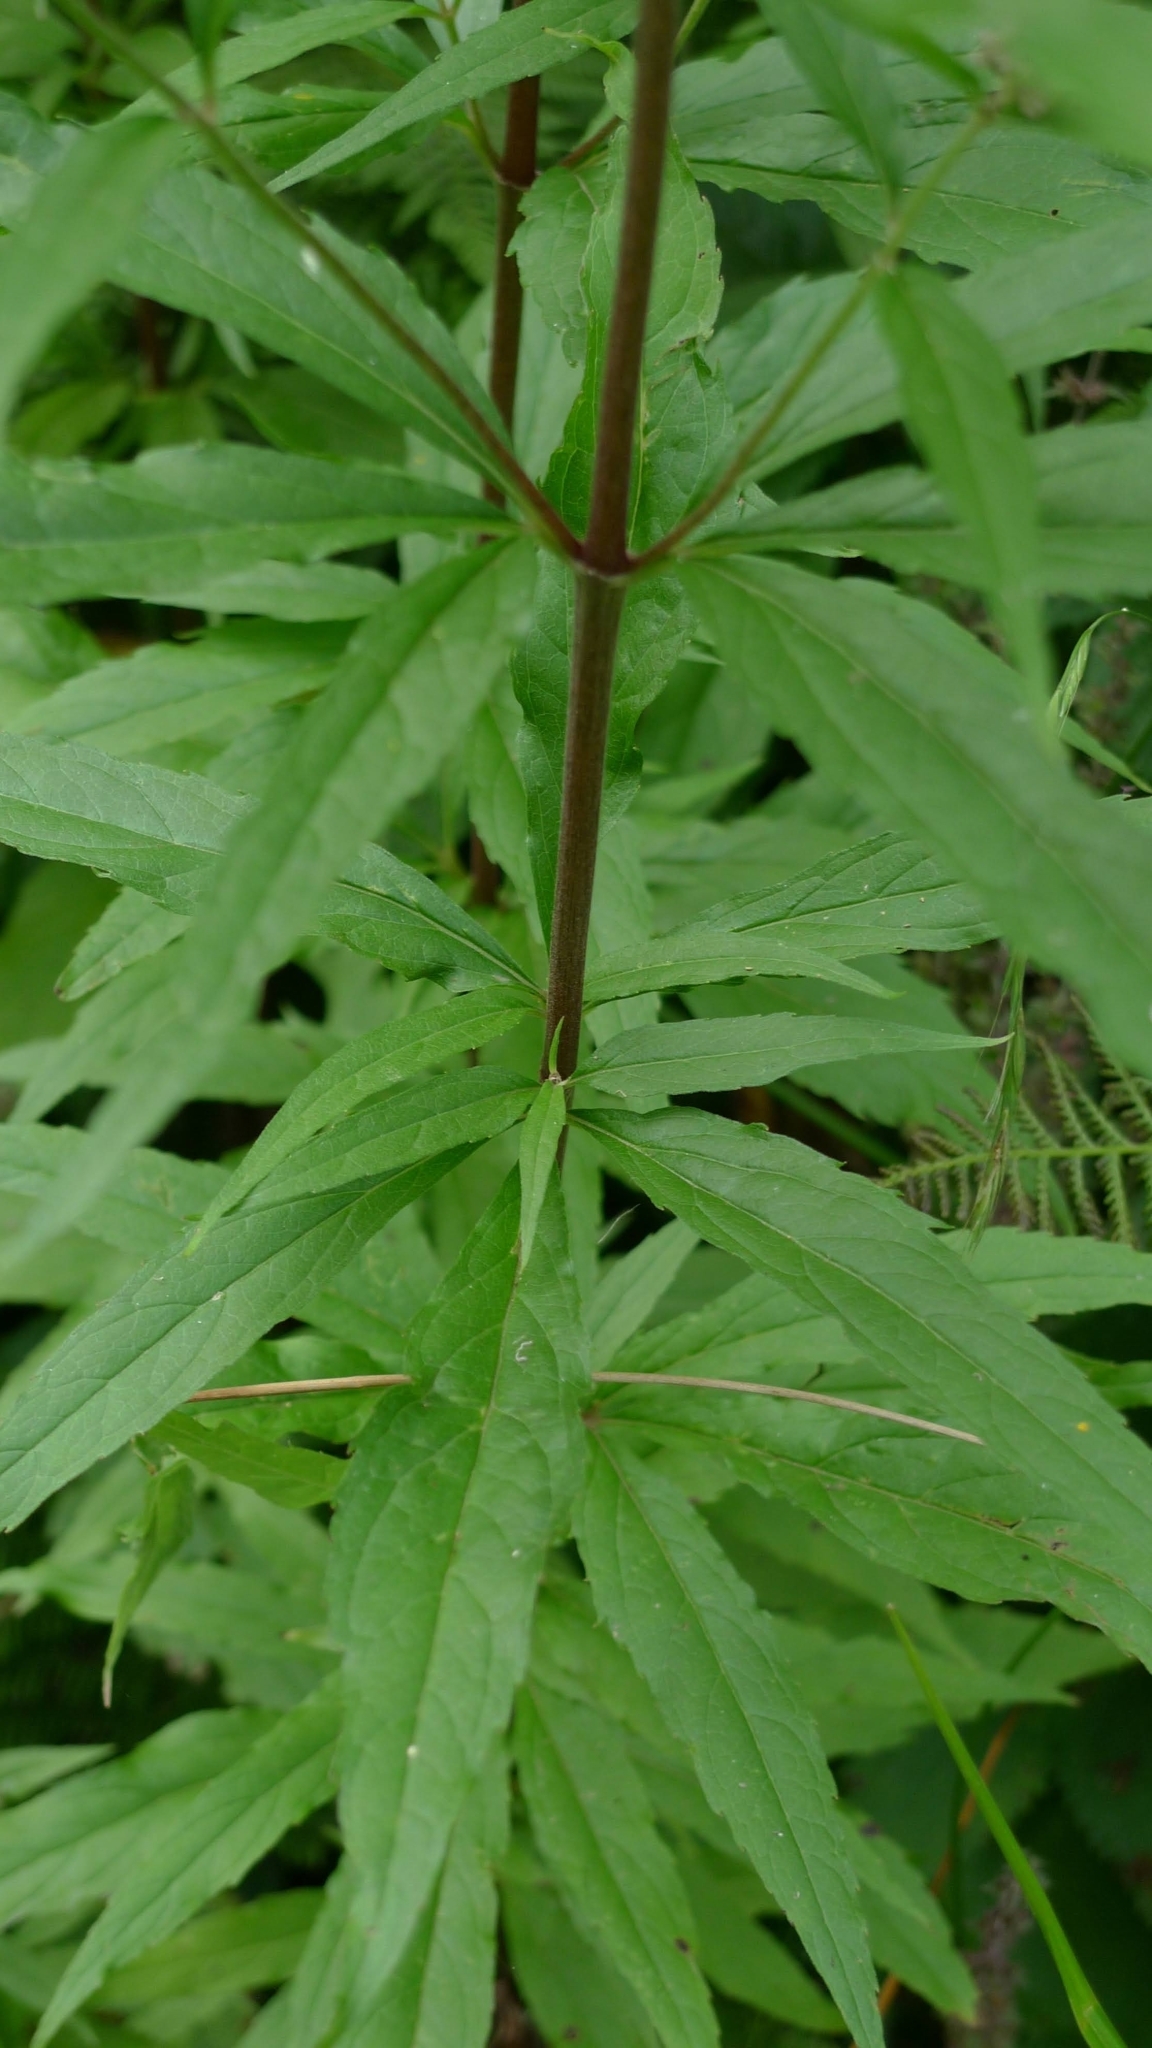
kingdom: Plantae
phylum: Tracheophyta
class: Magnoliopsida
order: Asterales
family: Asteraceae
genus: Eupatorium
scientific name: Eupatorium cannabinum
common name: Hemp-agrimony
